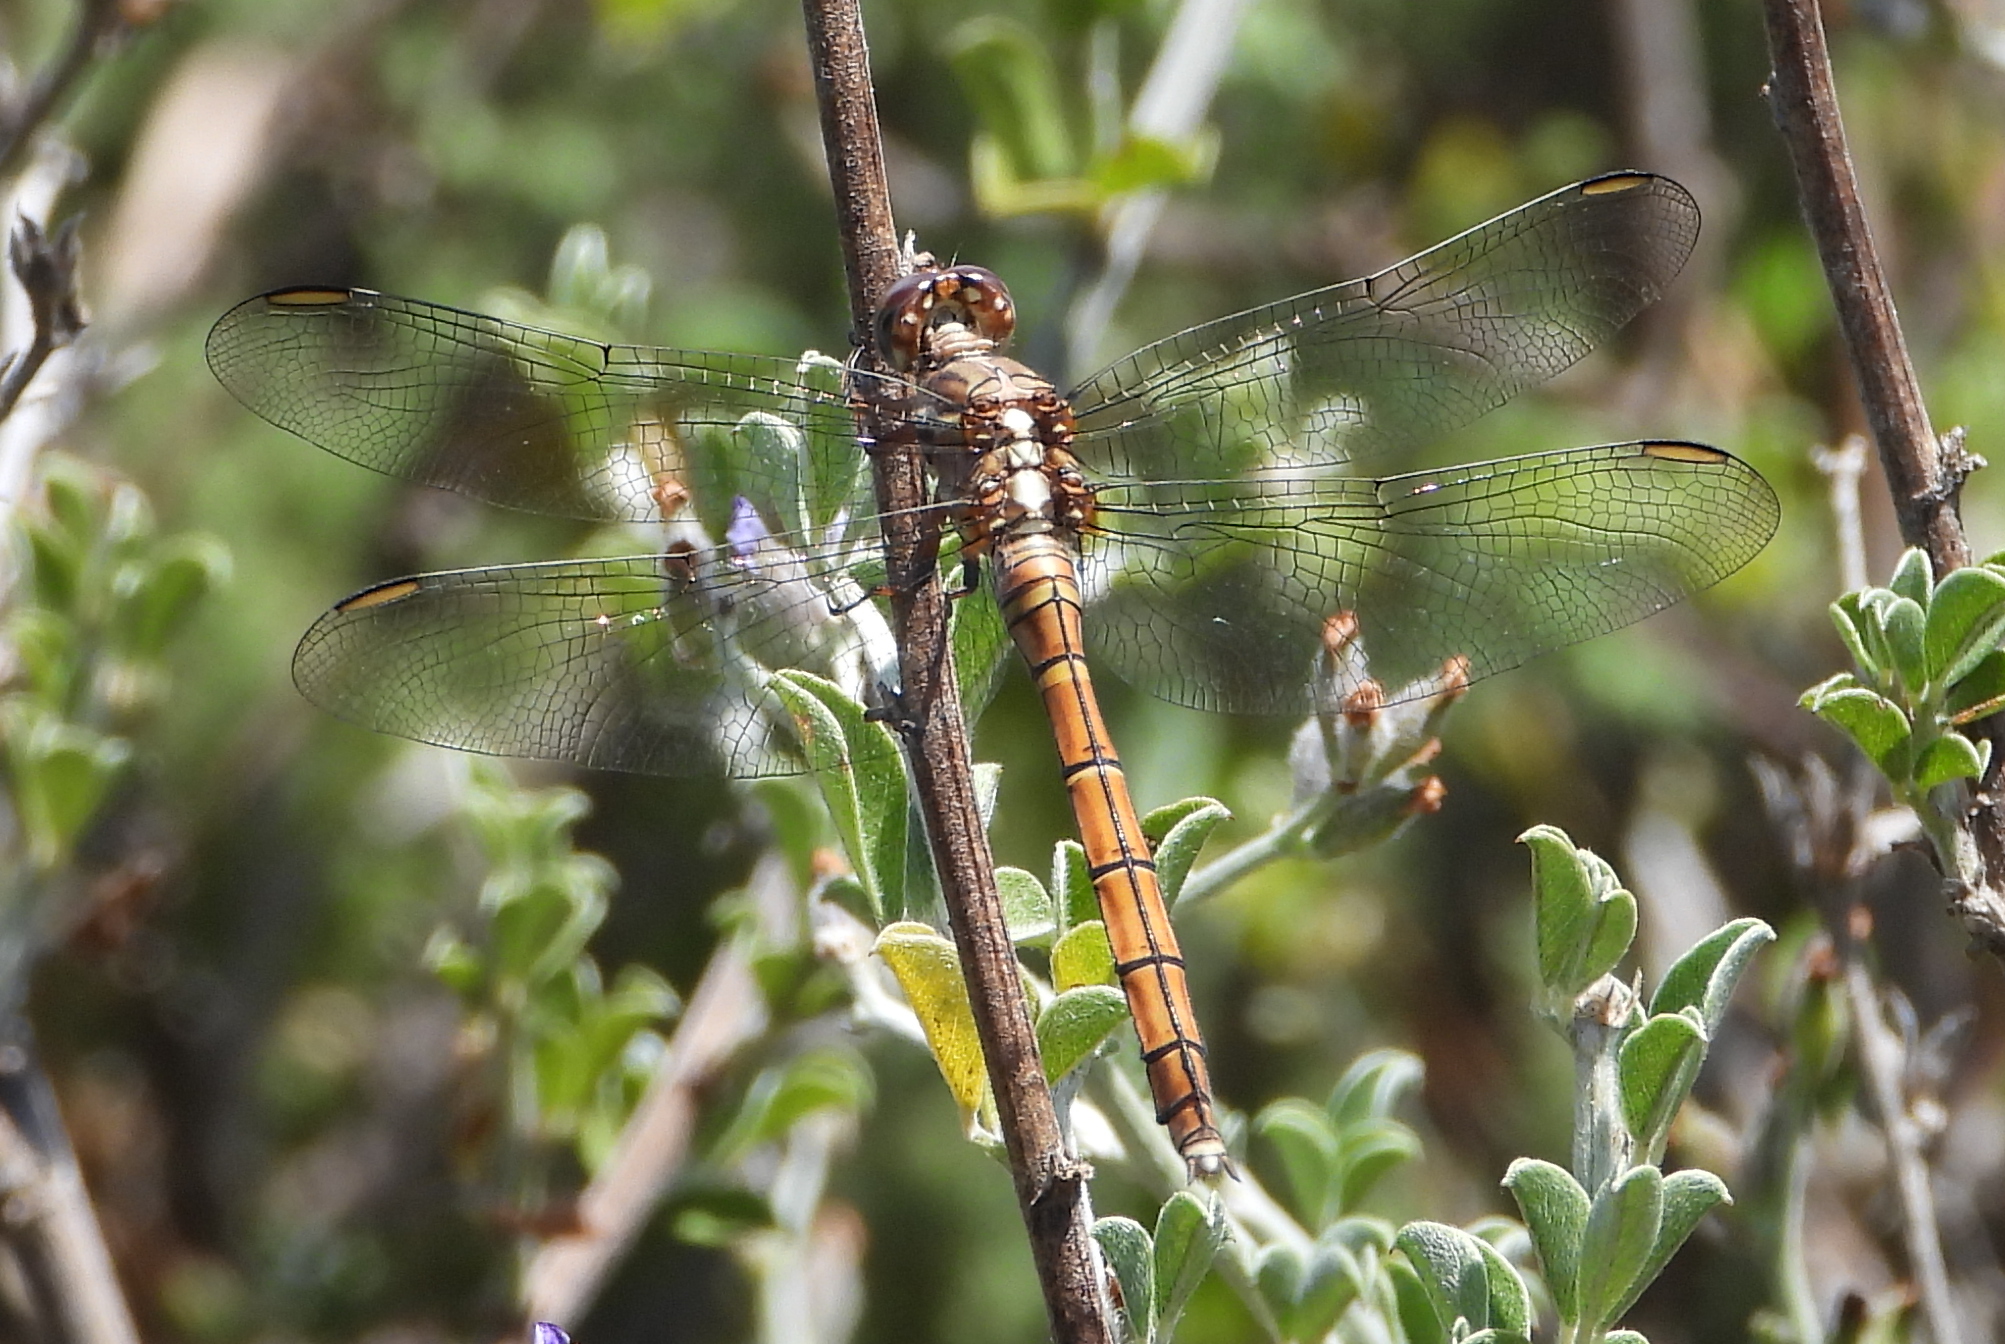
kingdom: Animalia
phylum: Arthropoda
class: Insecta
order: Odonata
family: Libellulidae
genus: Orthetrum
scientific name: Orthetrum julia
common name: Julia skimmer
